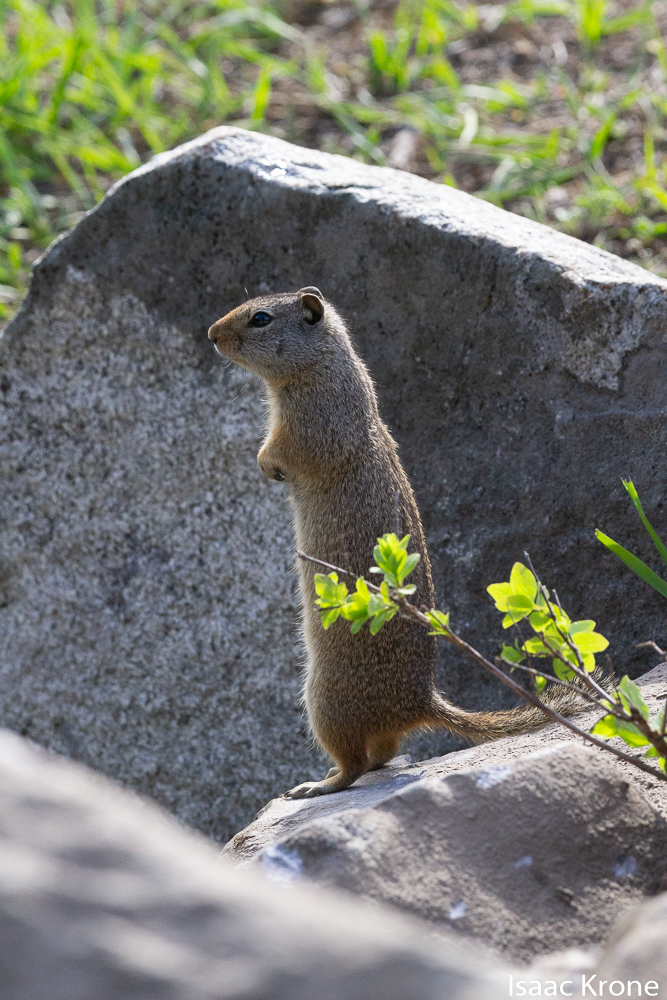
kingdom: Animalia
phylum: Chordata
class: Mammalia
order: Rodentia
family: Sciuridae
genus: Urocitellus
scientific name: Urocitellus armatus
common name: Uinta ground squirrel
